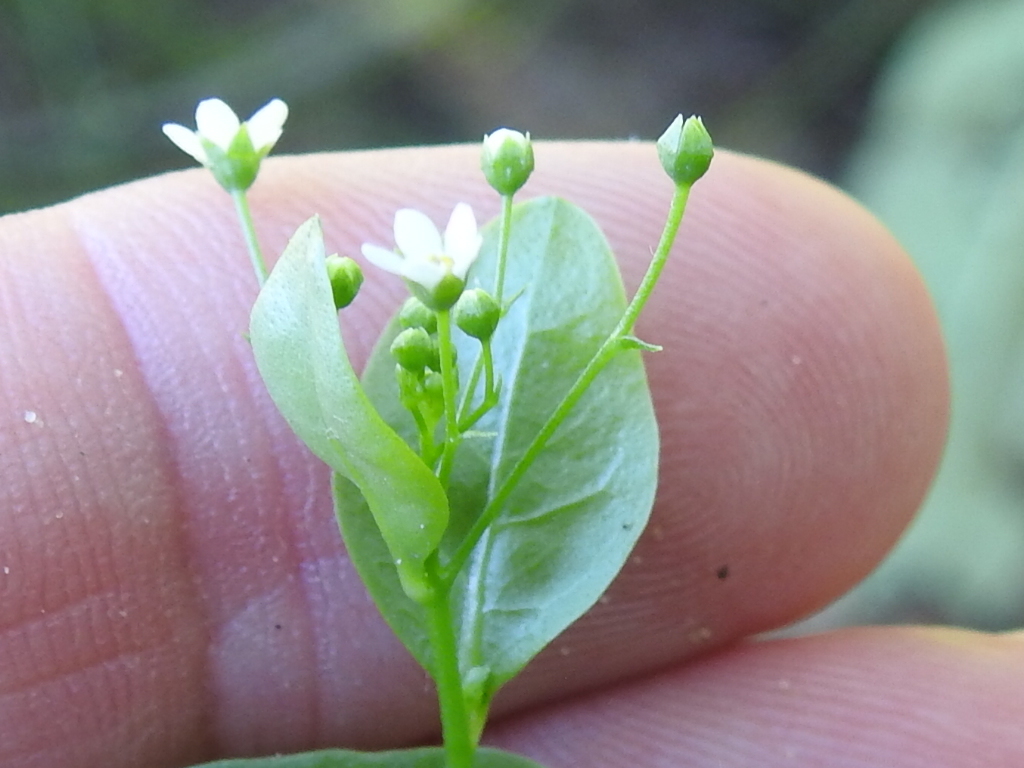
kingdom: Plantae
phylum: Tracheophyta
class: Magnoliopsida
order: Ericales
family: Primulaceae
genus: Samolus
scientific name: Samolus parviflorus
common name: False water pimpernel
